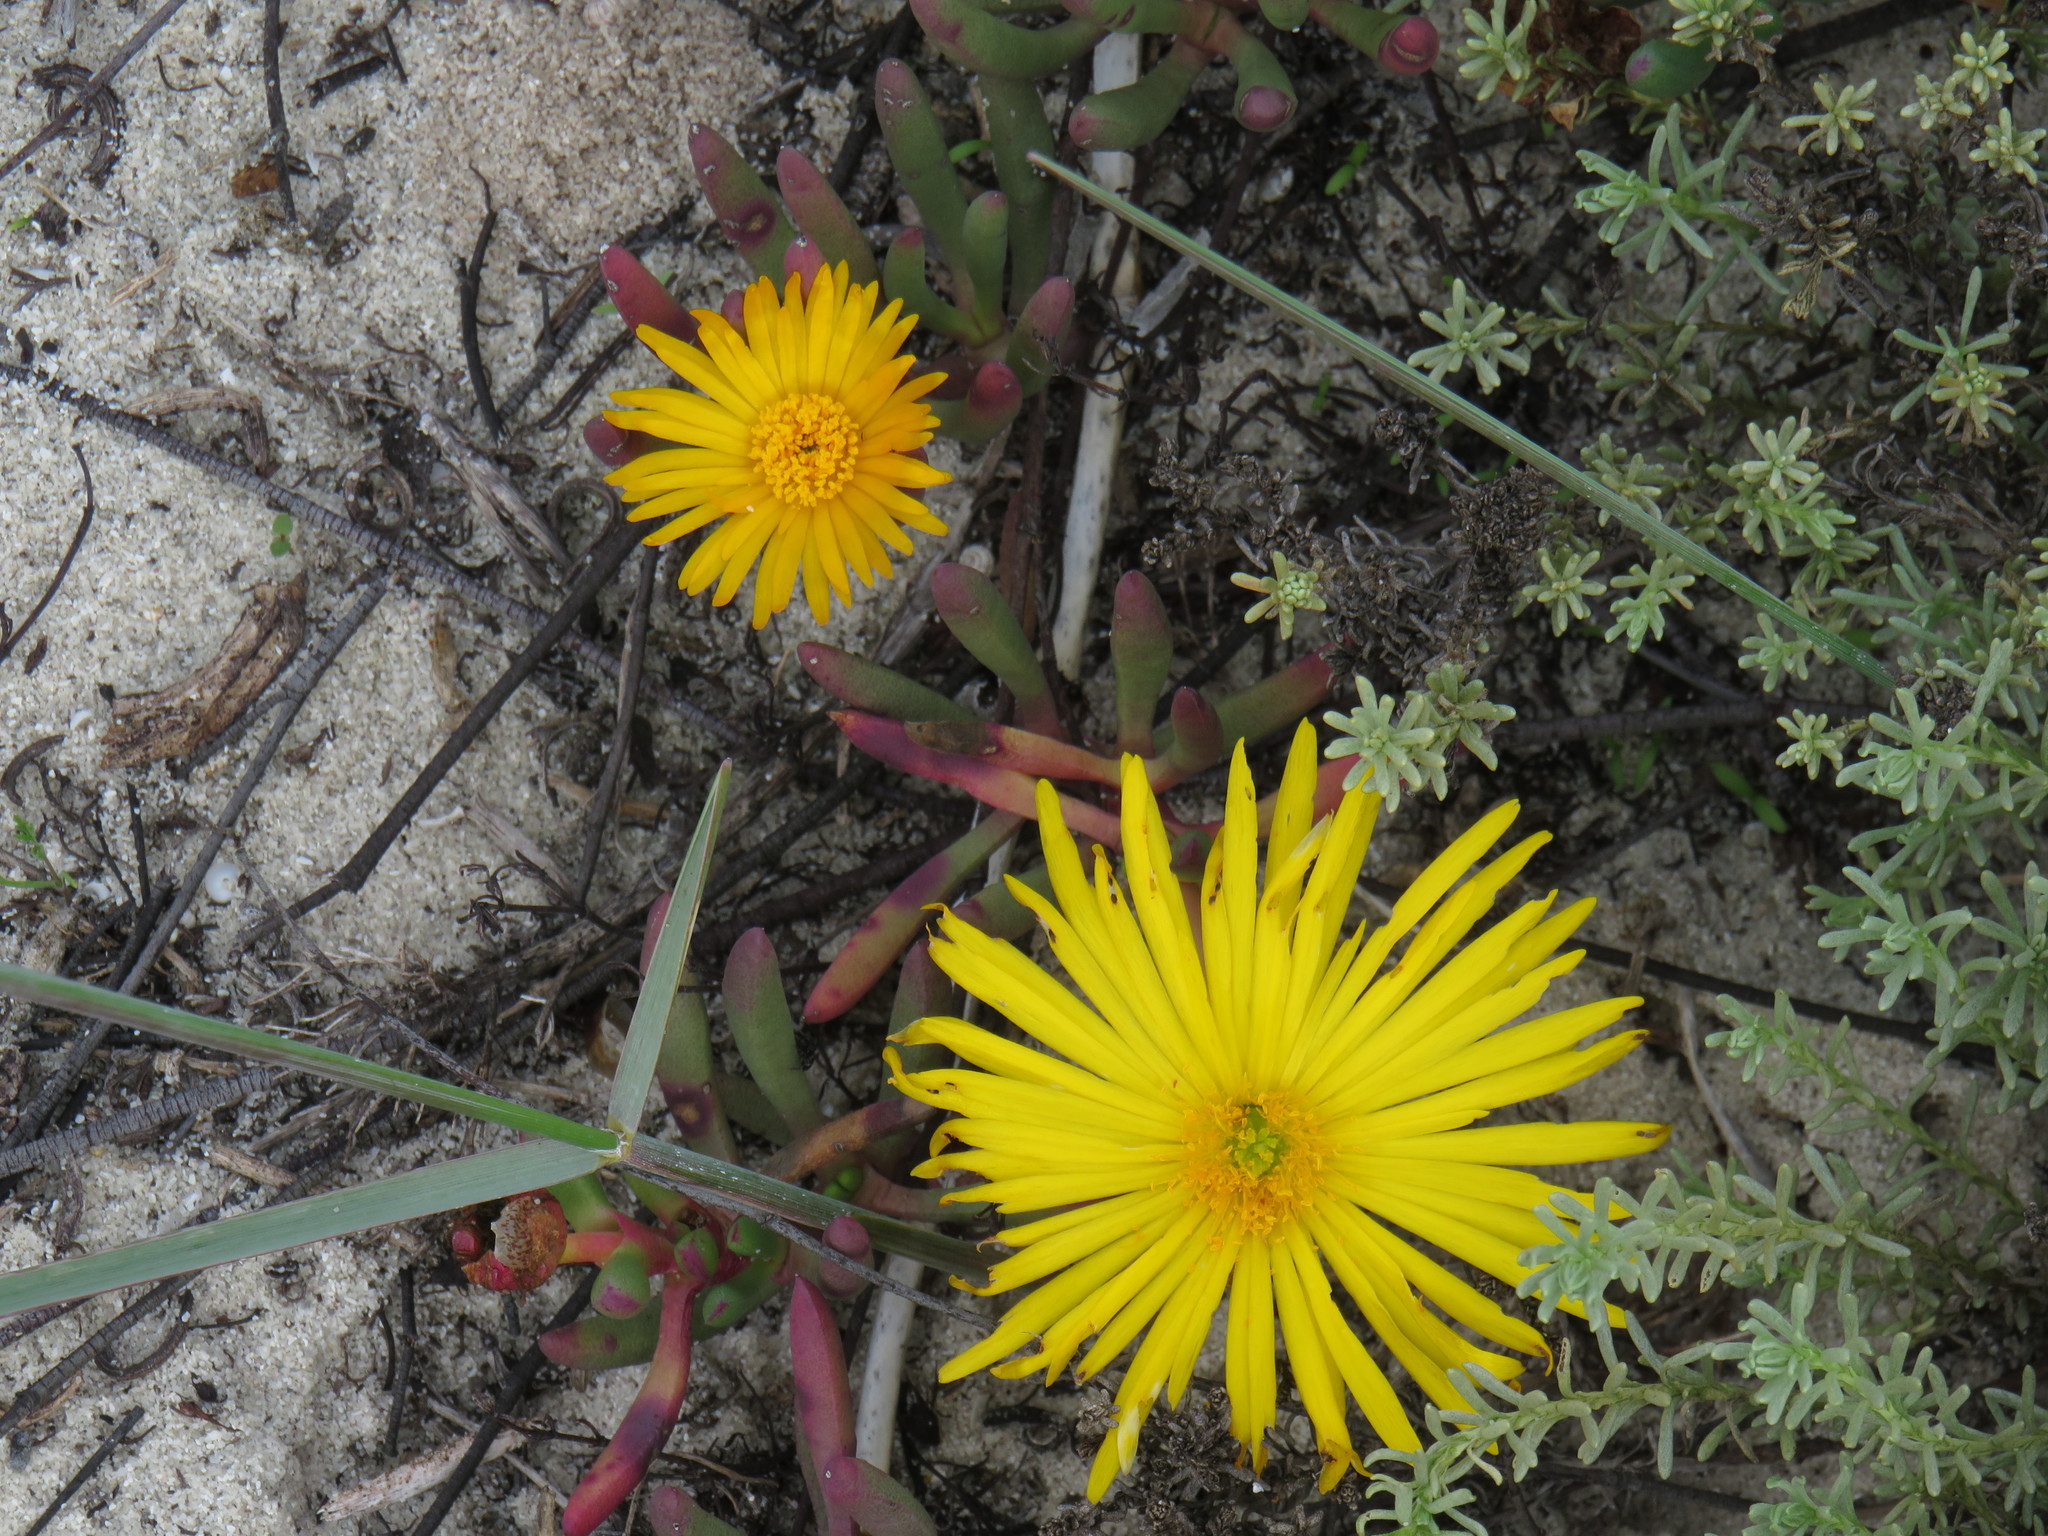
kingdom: Plantae
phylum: Tracheophyta
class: Magnoliopsida
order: Caryophyllales
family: Aizoaceae
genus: Jordaaniella
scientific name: Jordaaniella dubia
